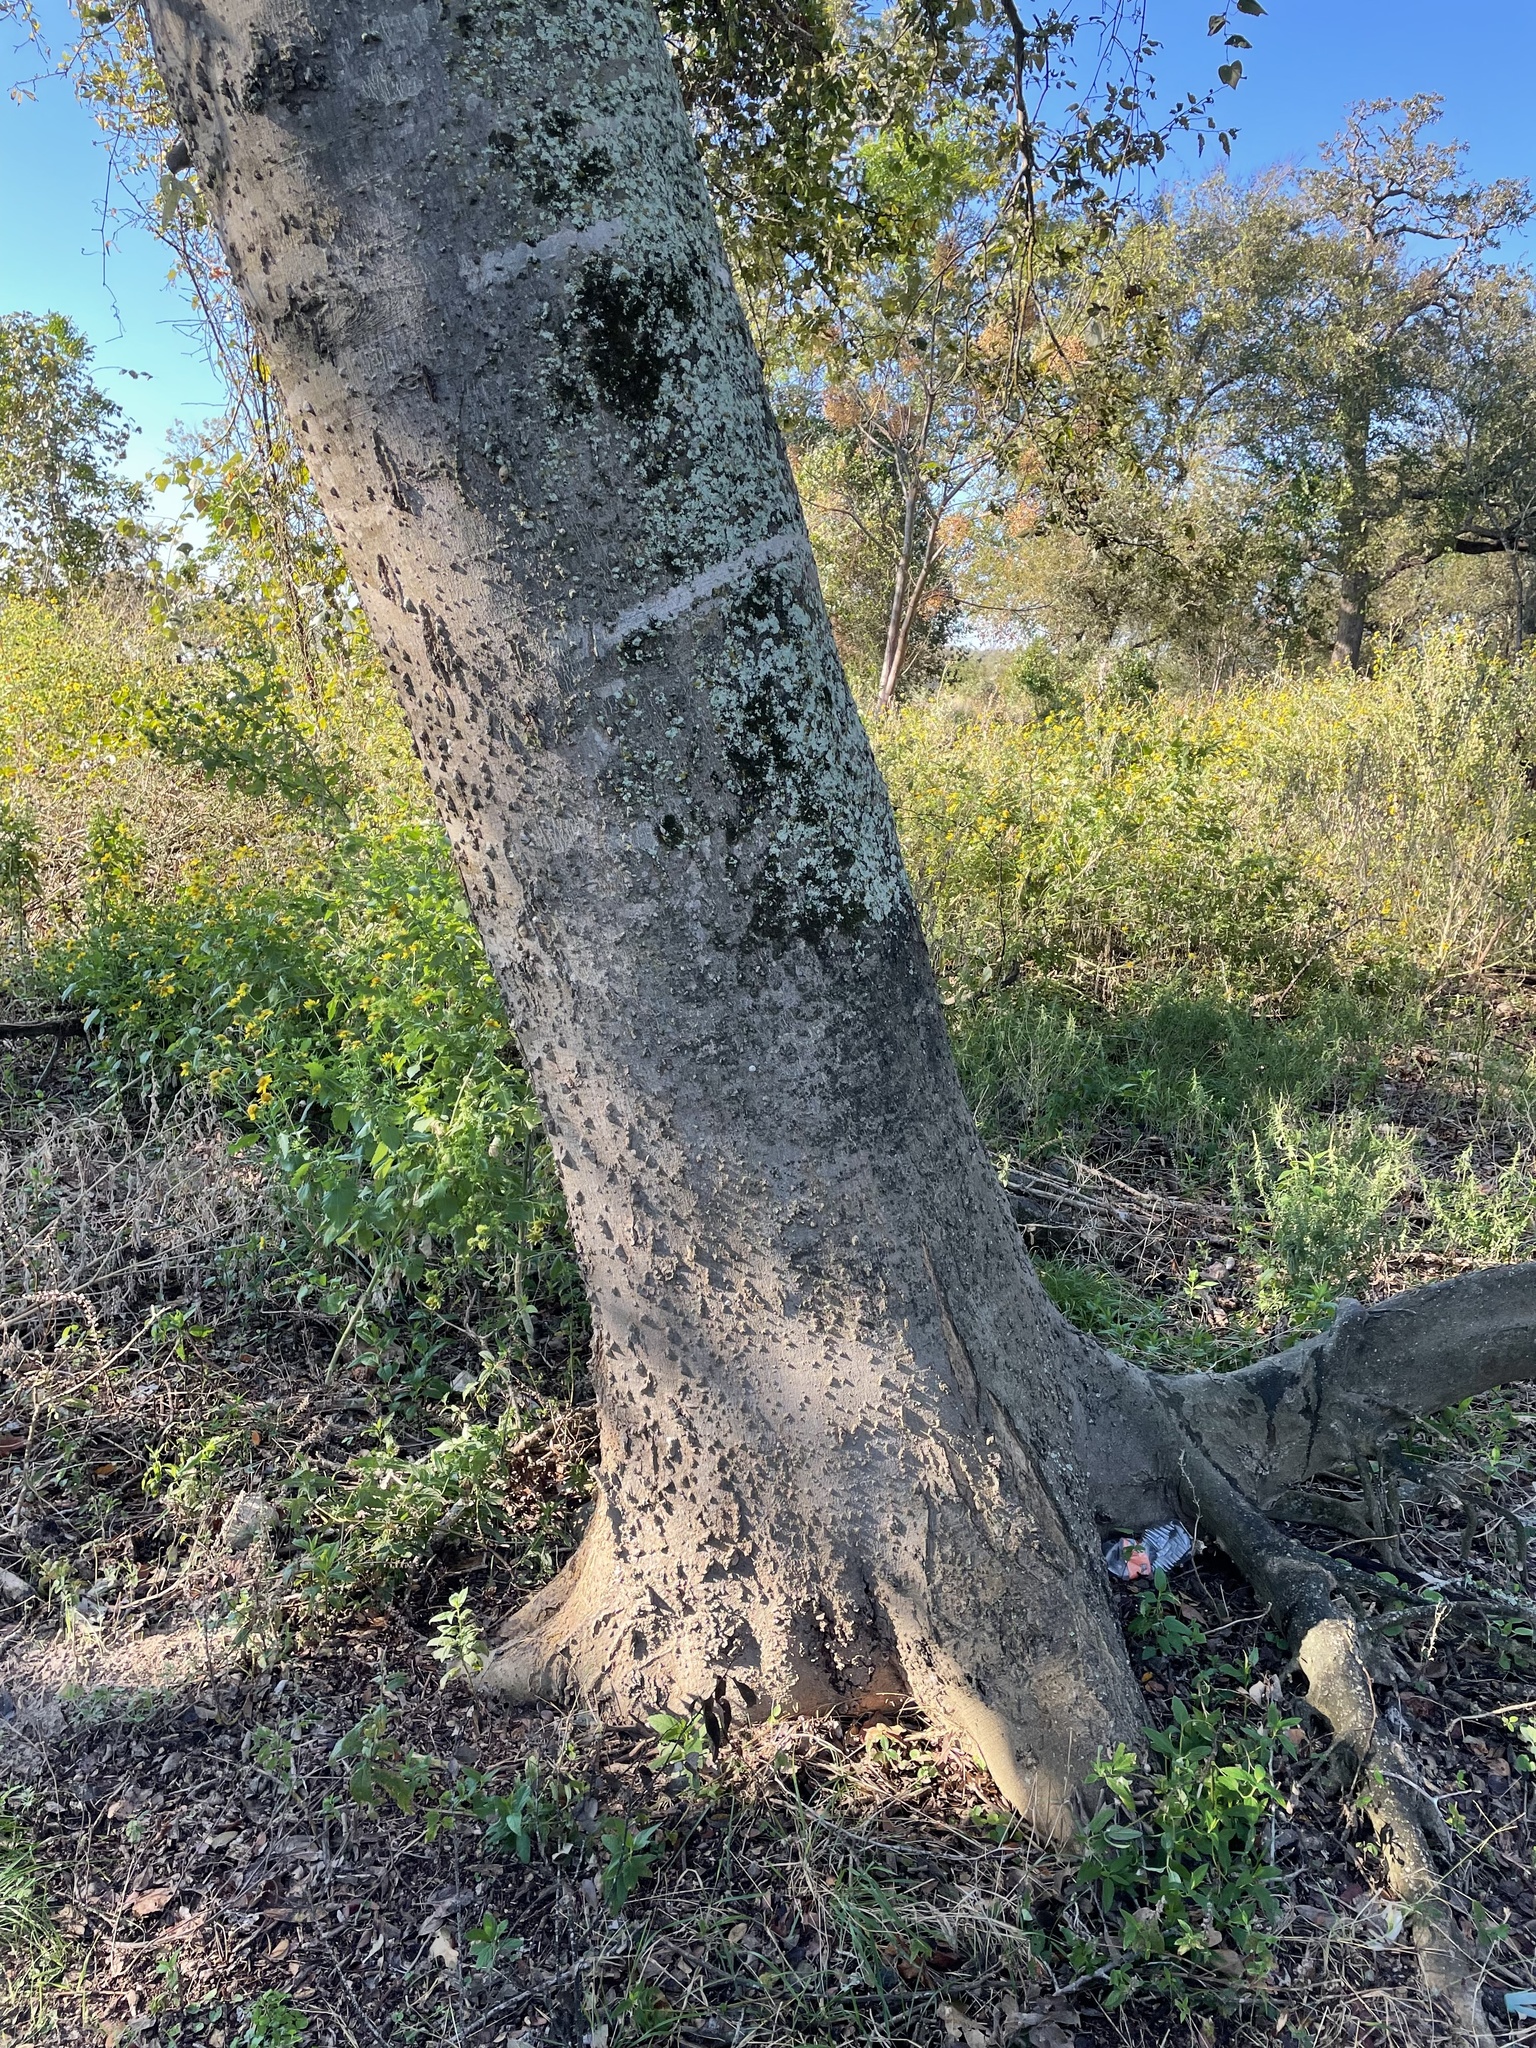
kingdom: Plantae
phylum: Tracheophyta
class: Magnoliopsida
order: Rosales
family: Cannabaceae
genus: Celtis
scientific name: Celtis laevigata
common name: Sugarberry
